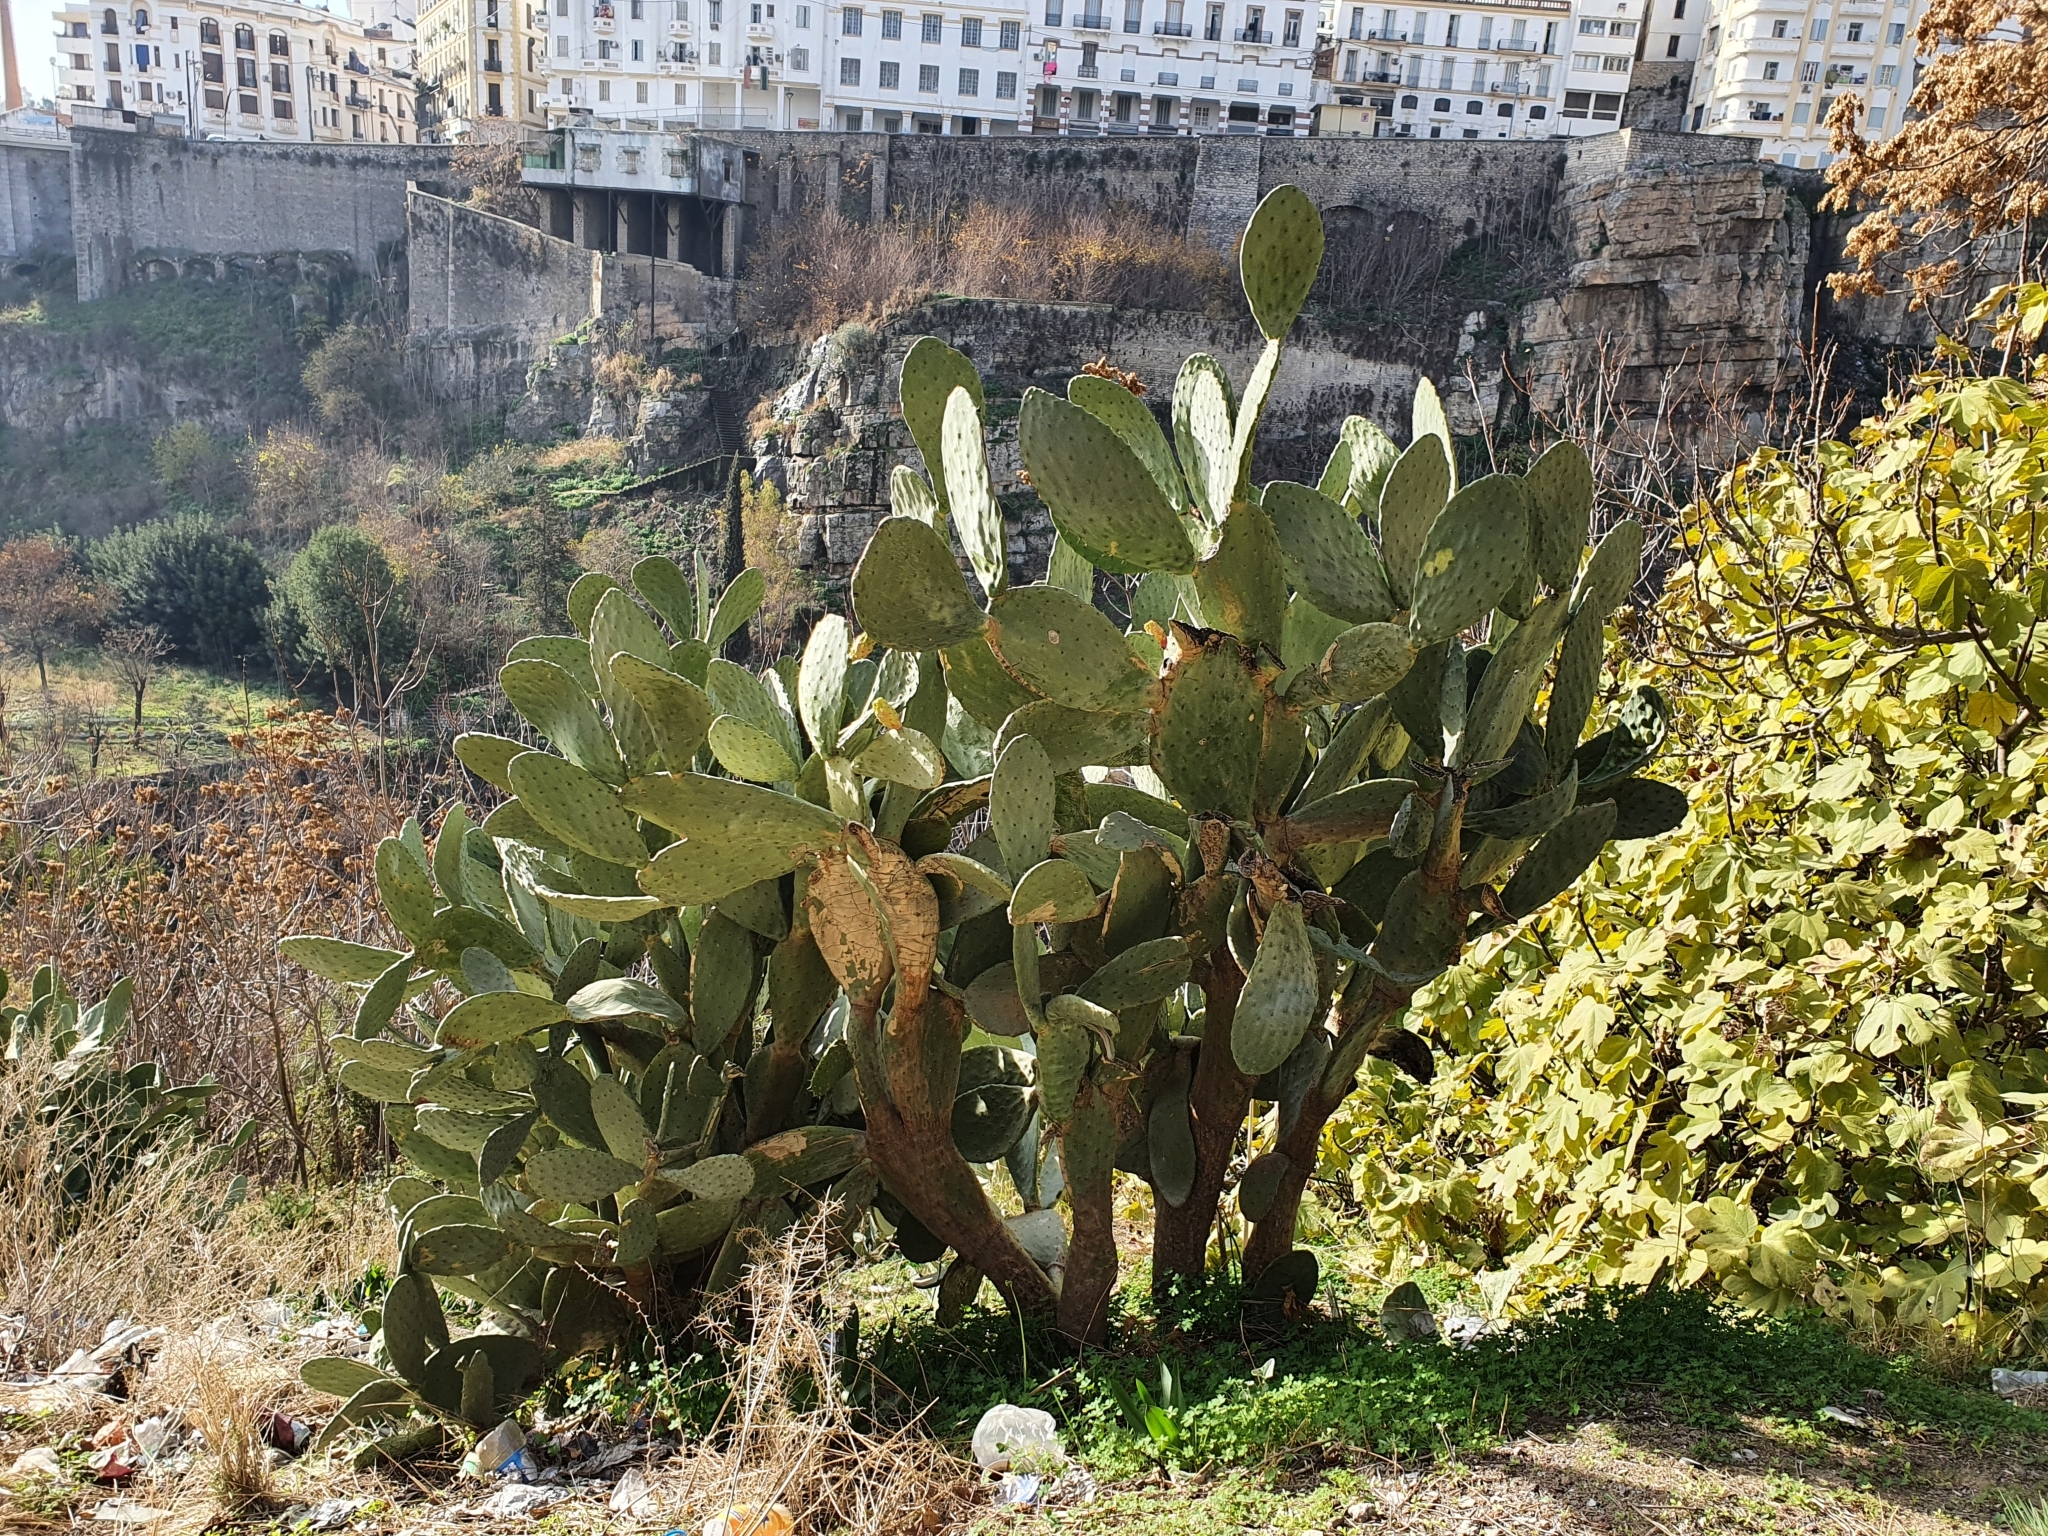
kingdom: Plantae
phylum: Tracheophyta
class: Magnoliopsida
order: Caryophyllales
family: Cactaceae
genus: Opuntia
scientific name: Opuntia ficus-indica
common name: Barbary fig
